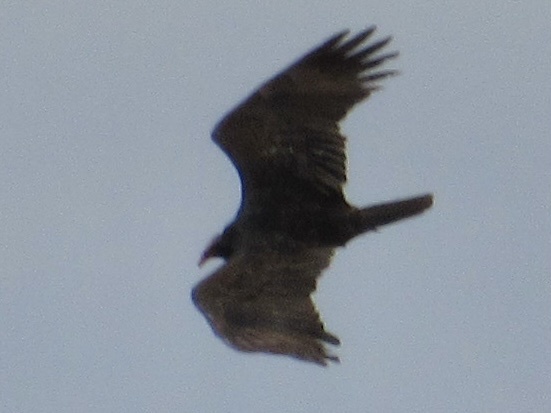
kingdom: Animalia
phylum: Chordata
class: Aves
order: Accipitriformes
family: Cathartidae
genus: Cathartes
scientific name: Cathartes aura
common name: Turkey vulture
